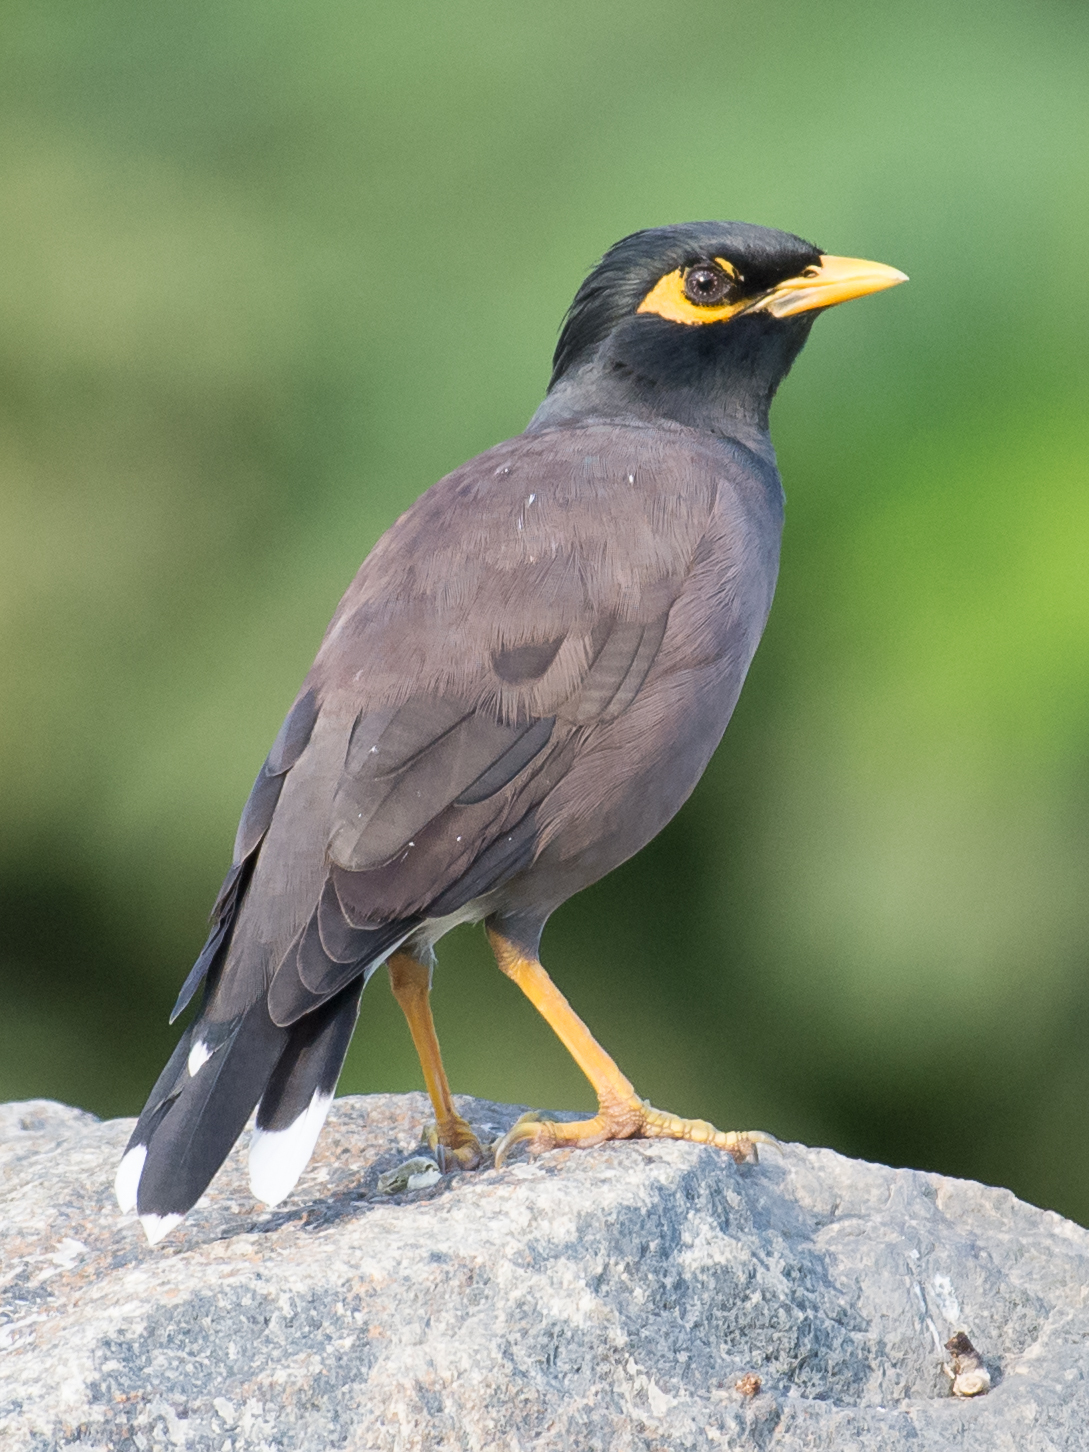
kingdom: Animalia
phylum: Chordata
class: Aves
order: Passeriformes
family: Sturnidae
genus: Acridotheres
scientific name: Acridotheres tristis
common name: Common myna
